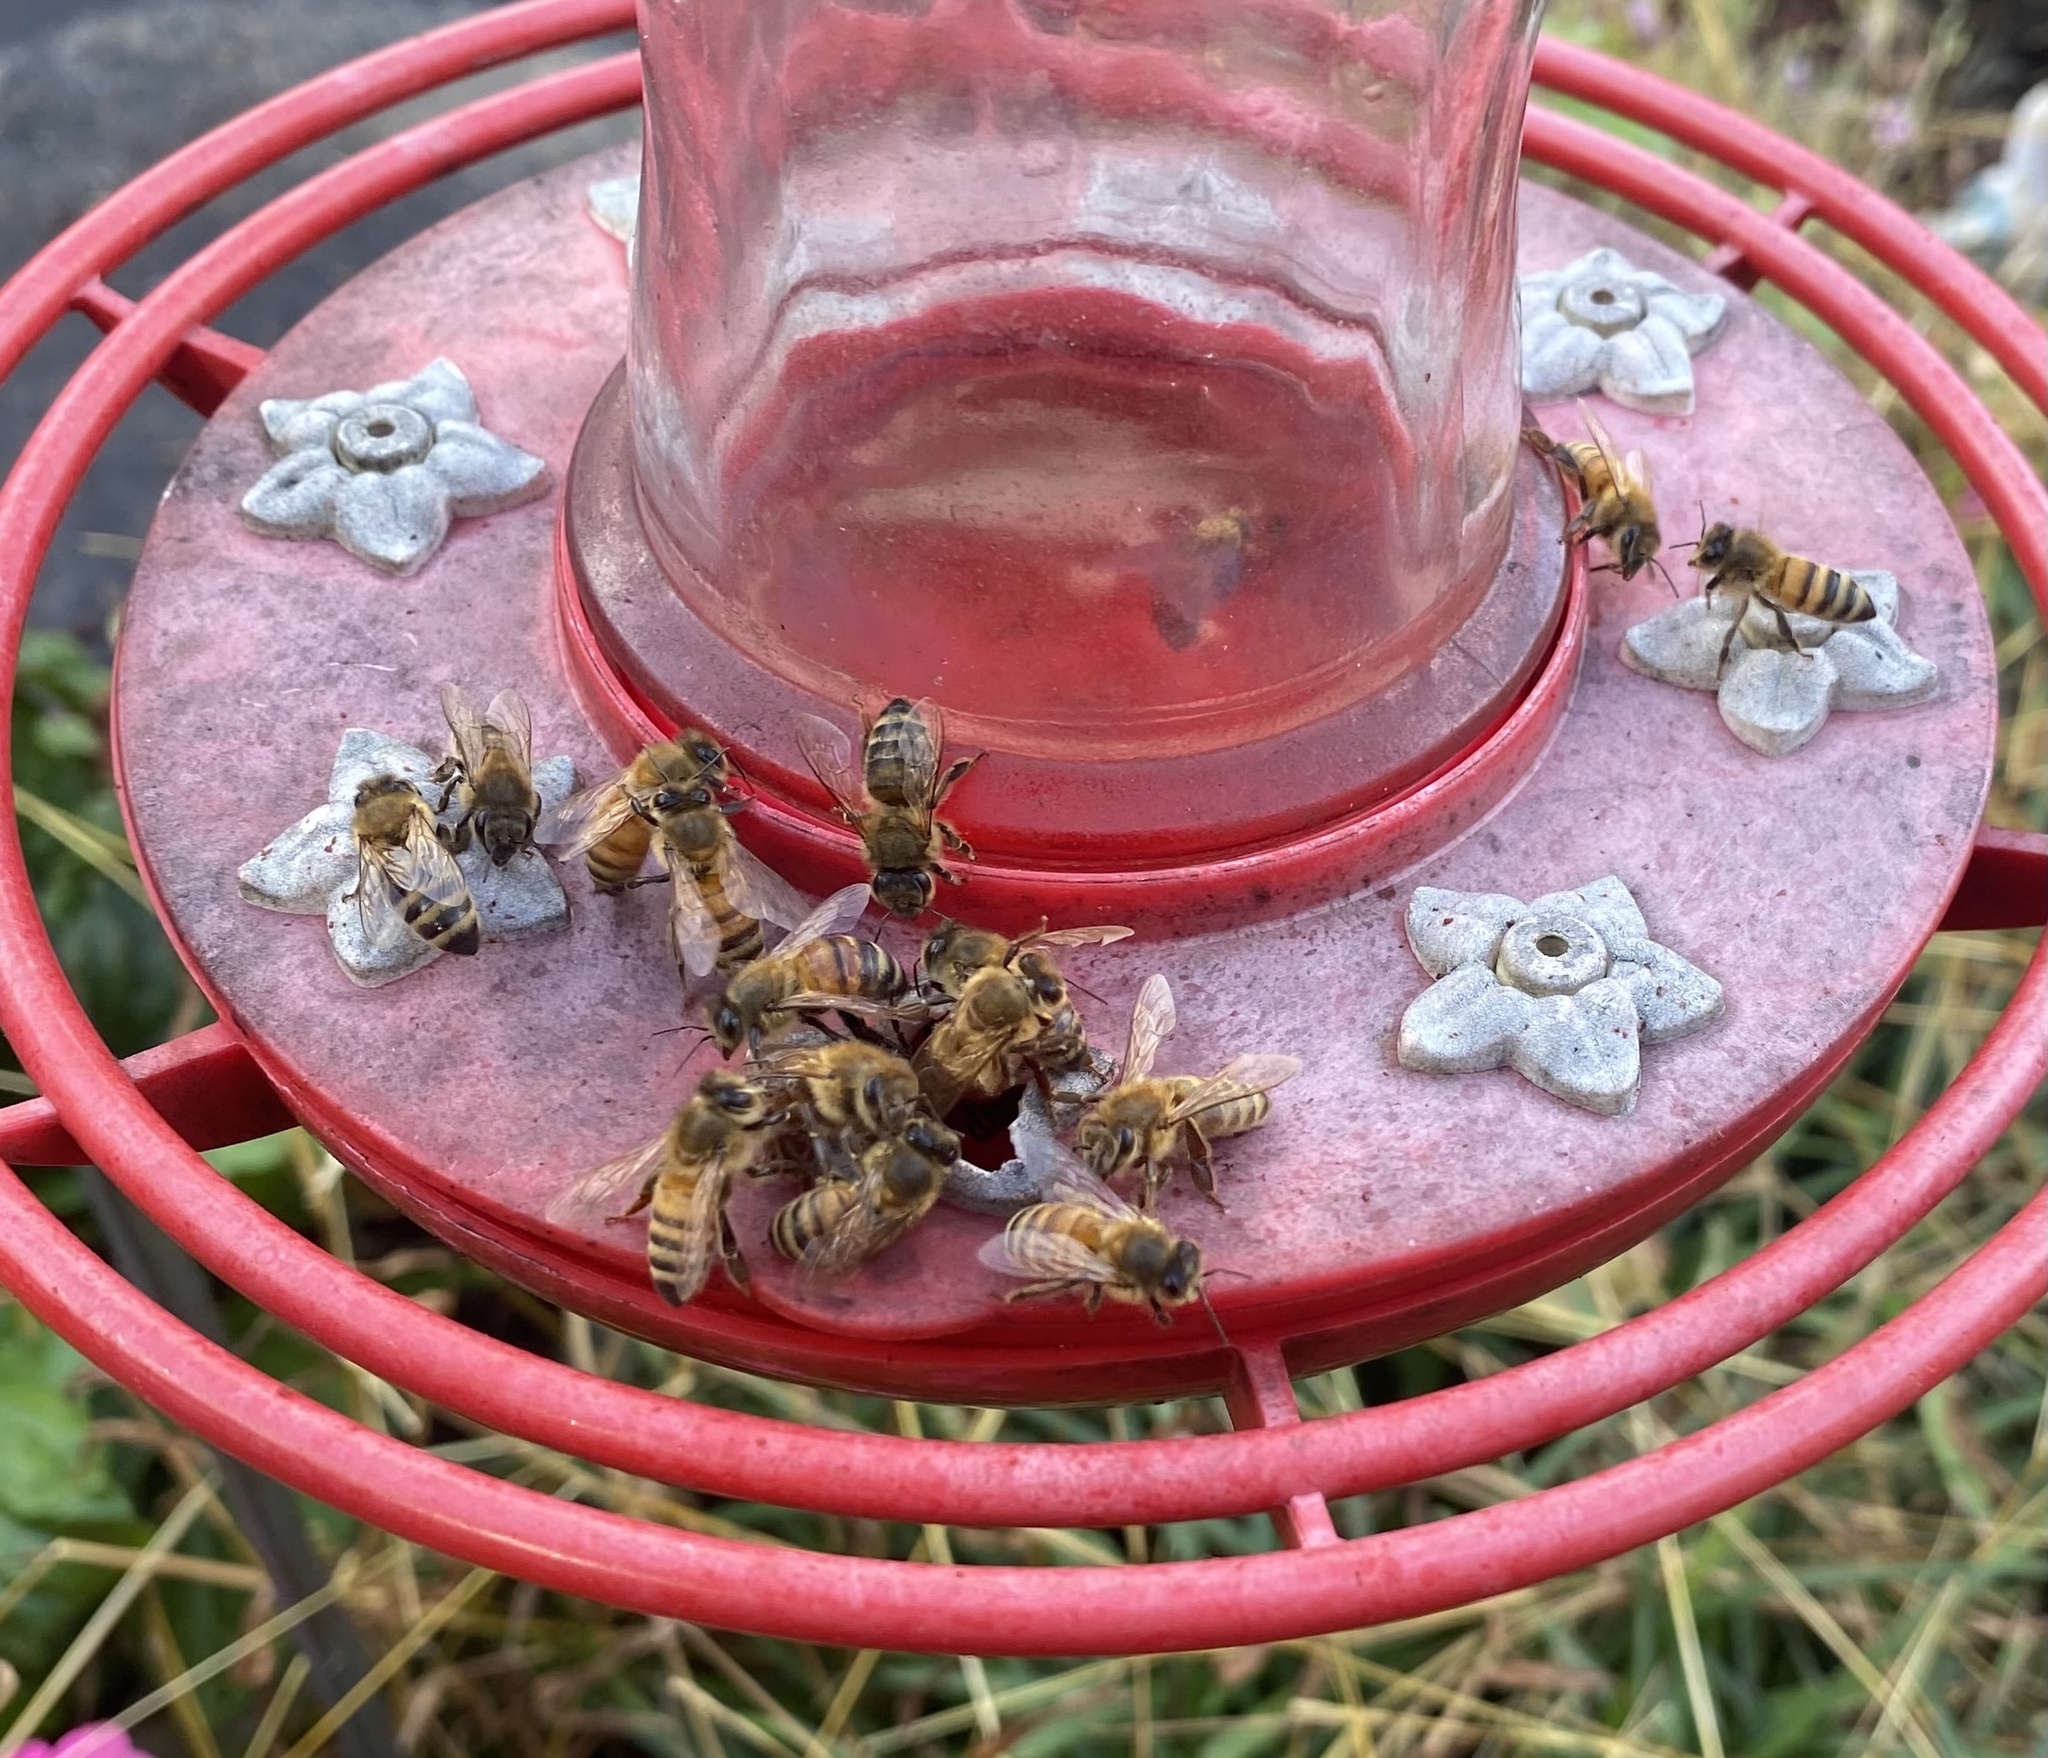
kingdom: Animalia
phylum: Arthropoda
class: Insecta
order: Hymenoptera
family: Apidae
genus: Apis
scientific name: Apis mellifera
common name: Honey bee
